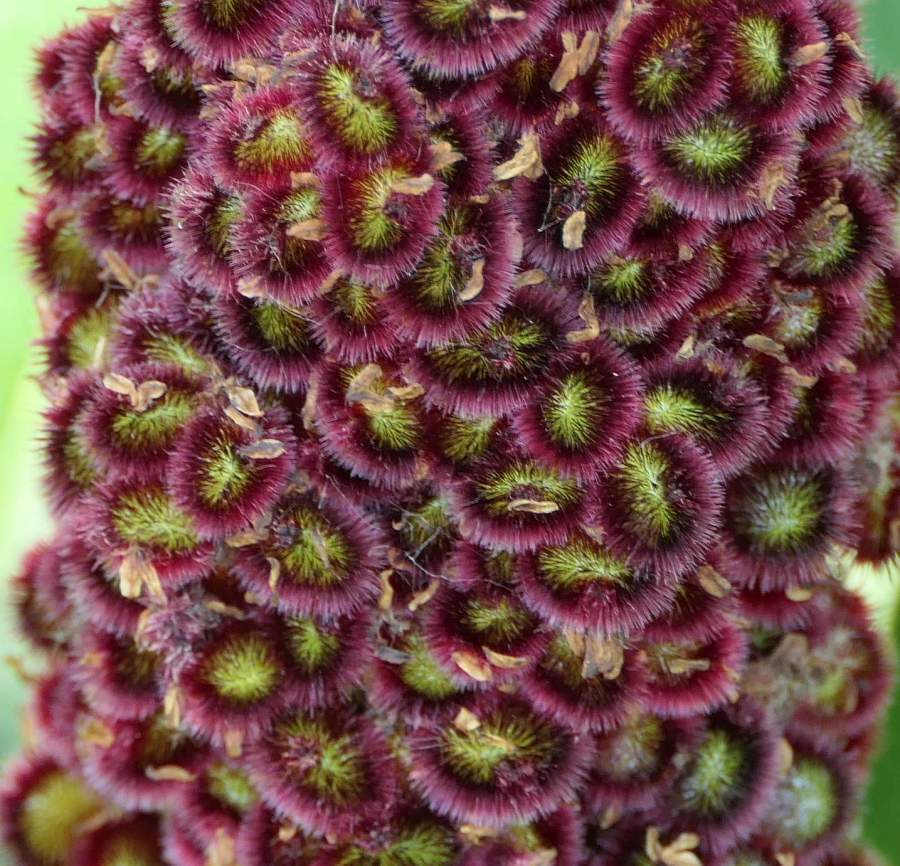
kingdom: Plantae
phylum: Tracheophyta
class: Magnoliopsida
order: Sapindales
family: Anacardiaceae
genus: Rhus
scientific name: Rhus typhina
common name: Staghorn sumac
